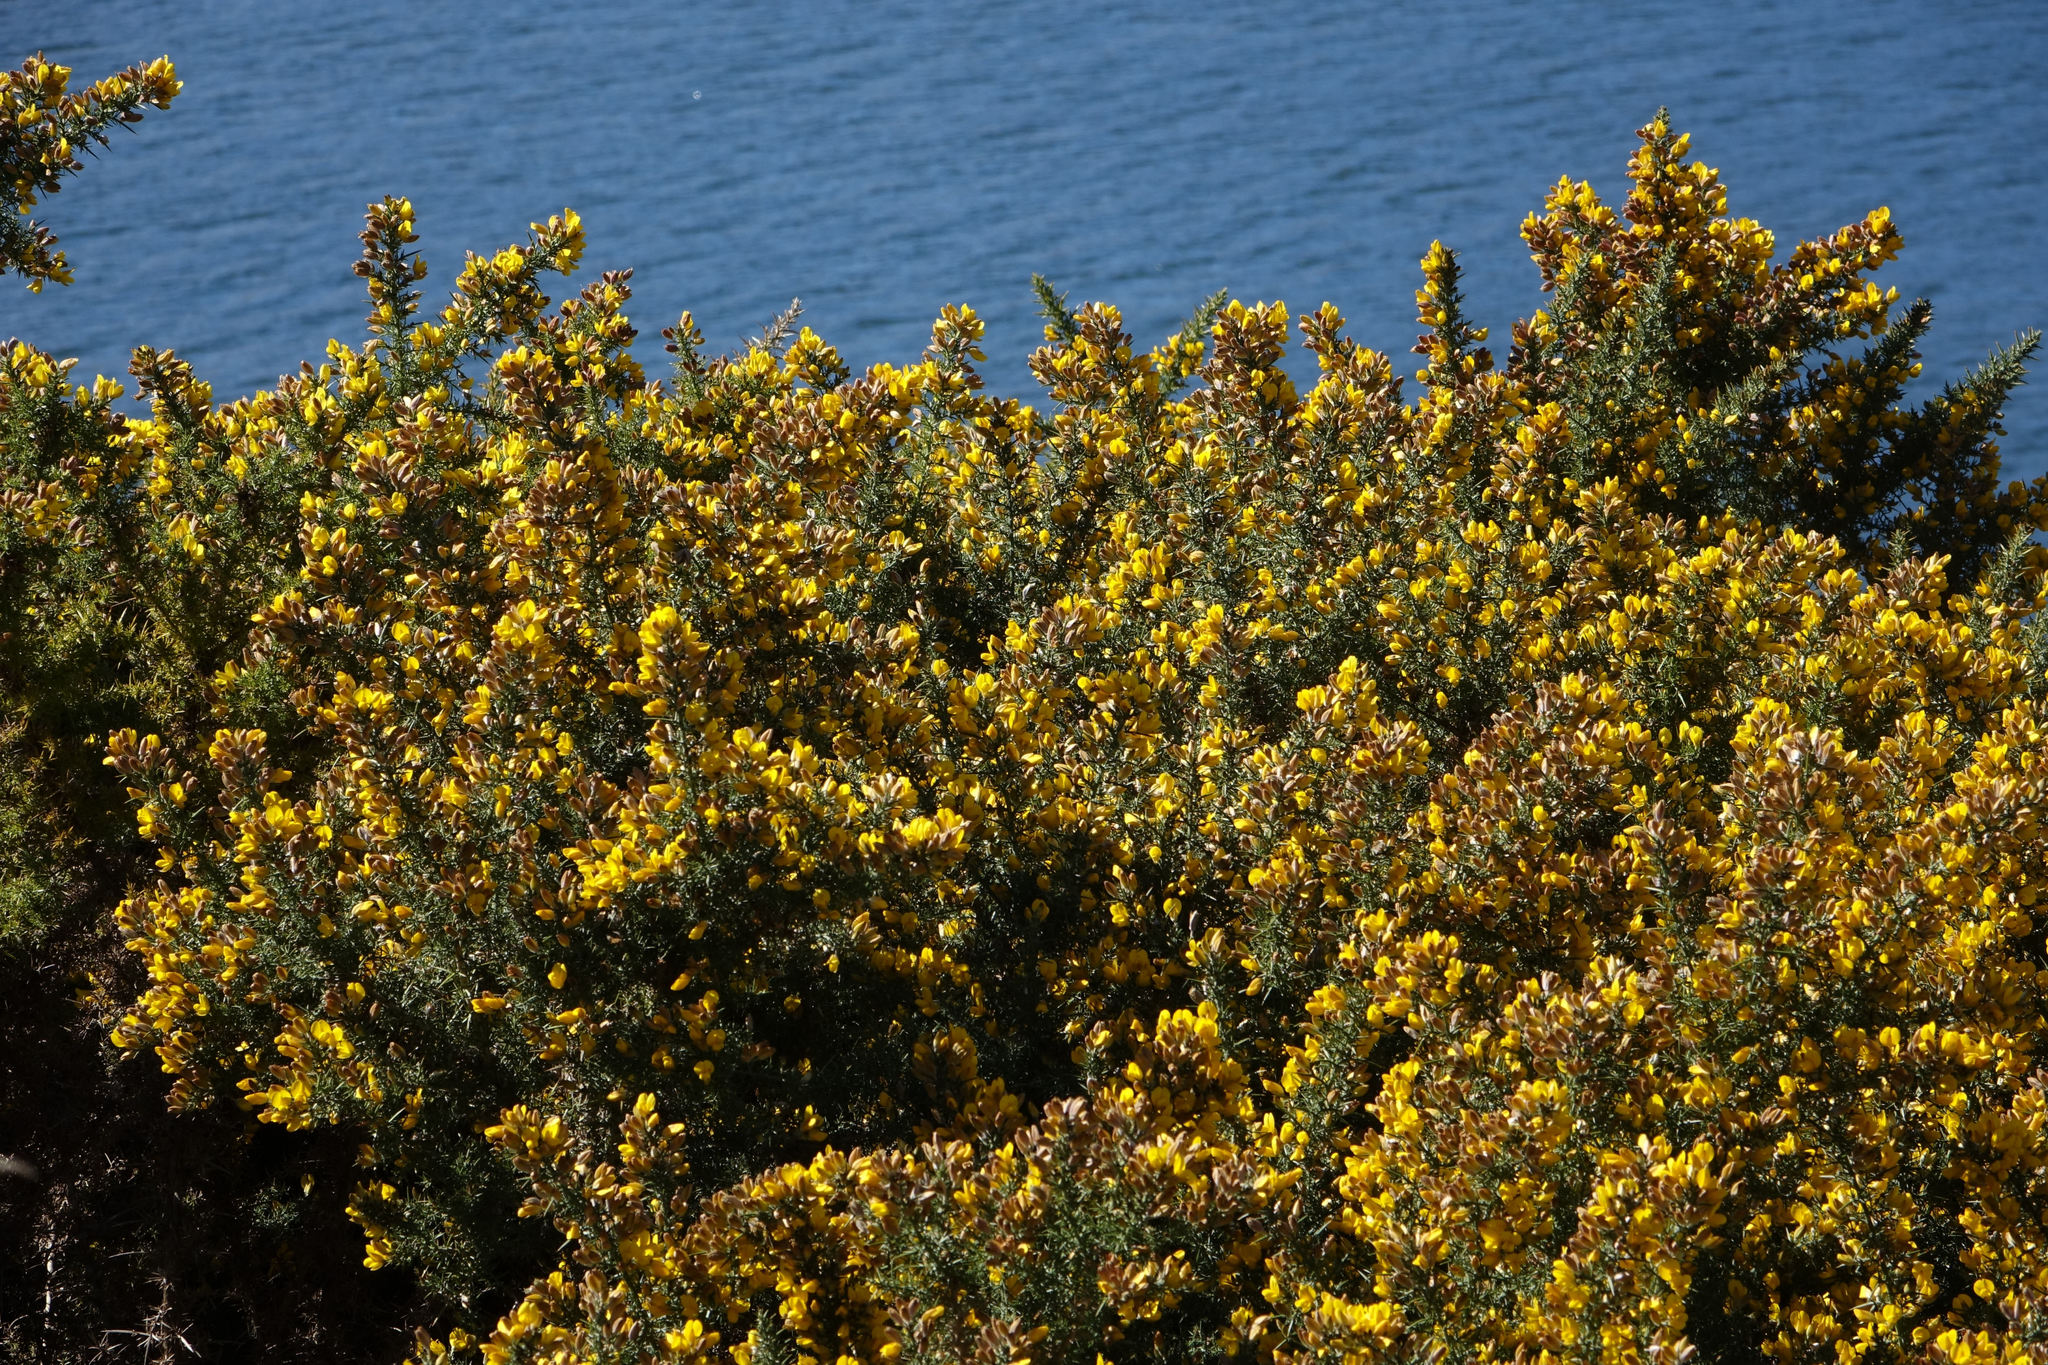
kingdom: Plantae
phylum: Tracheophyta
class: Magnoliopsida
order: Fabales
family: Fabaceae
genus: Ulex
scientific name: Ulex europaeus
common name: Common gorse
